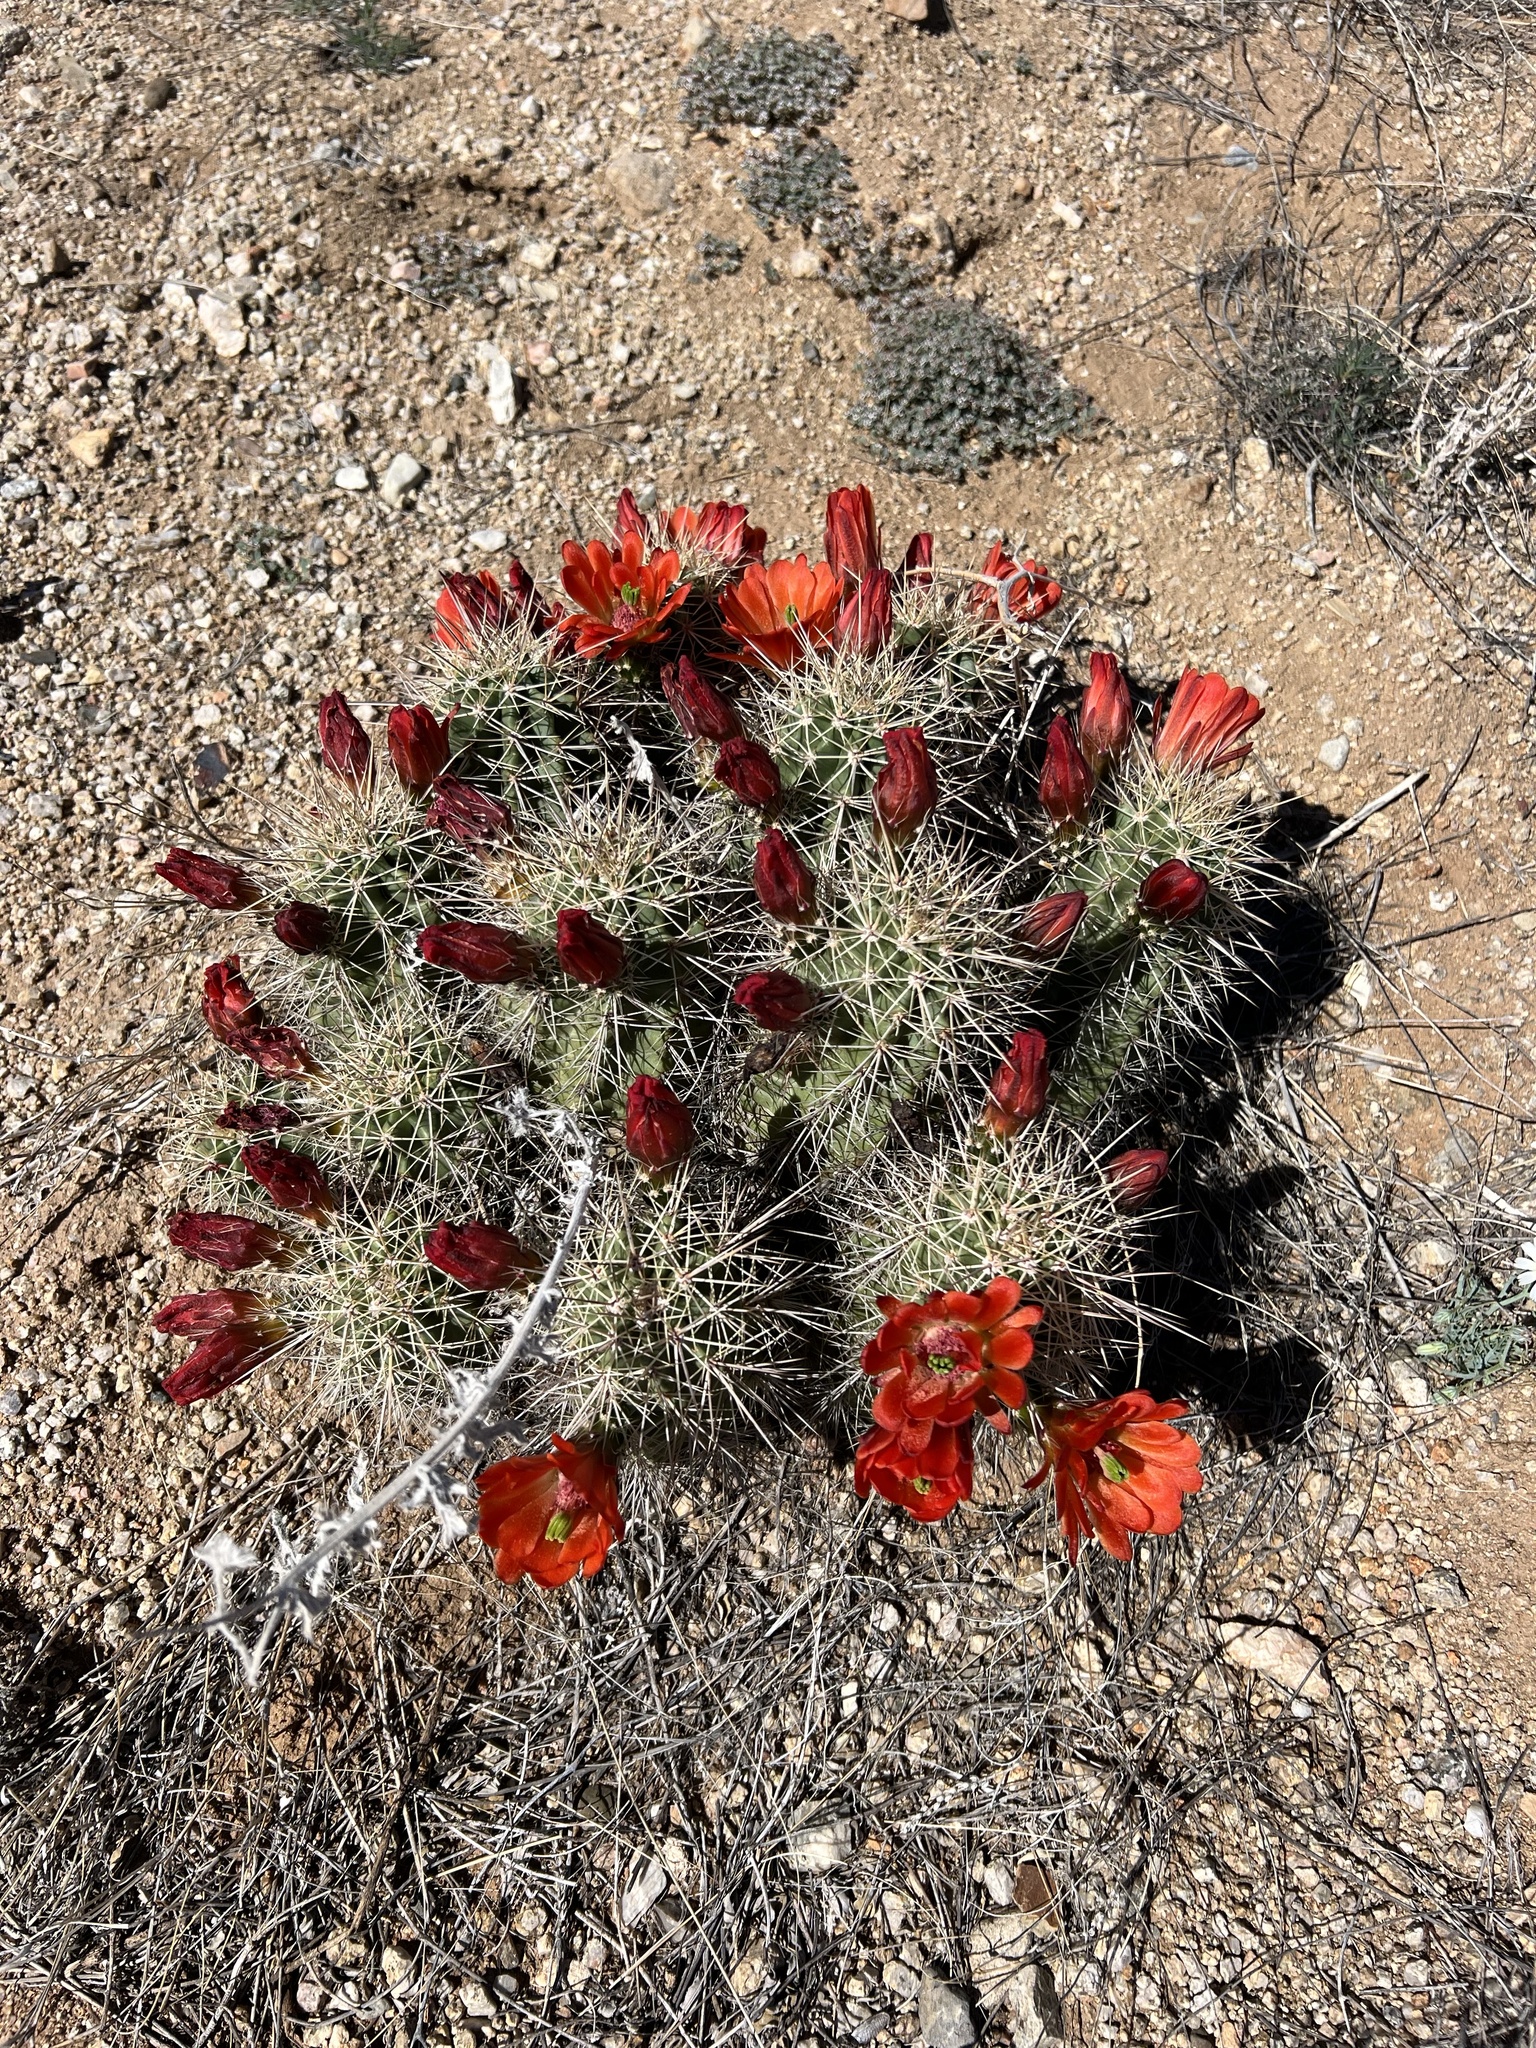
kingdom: Plantae
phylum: Tracheophyta
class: Magnoliopsida
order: Caryophyllales
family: Cactaceae
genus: Echinocereus
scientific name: Echinocereus coccineus
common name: Scarlet hedgehog cactus
